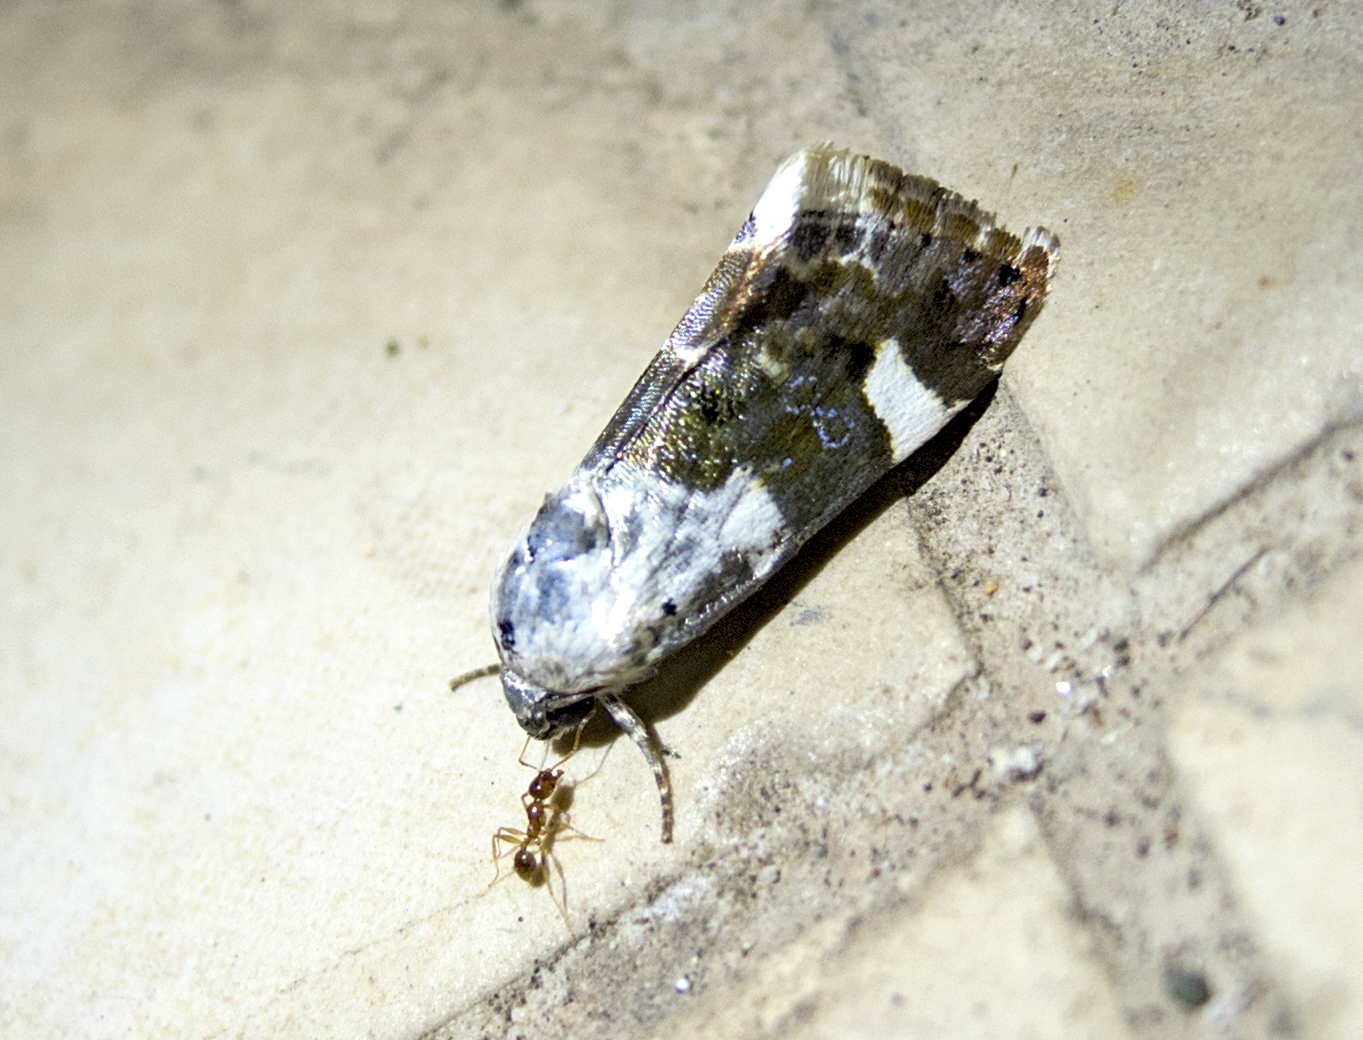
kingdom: Animalia
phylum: Arthropoda
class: Insecta
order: Lepidoptera
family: Noctuidae
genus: Acontia
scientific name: Acontia lucida
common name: Pale shoulder
